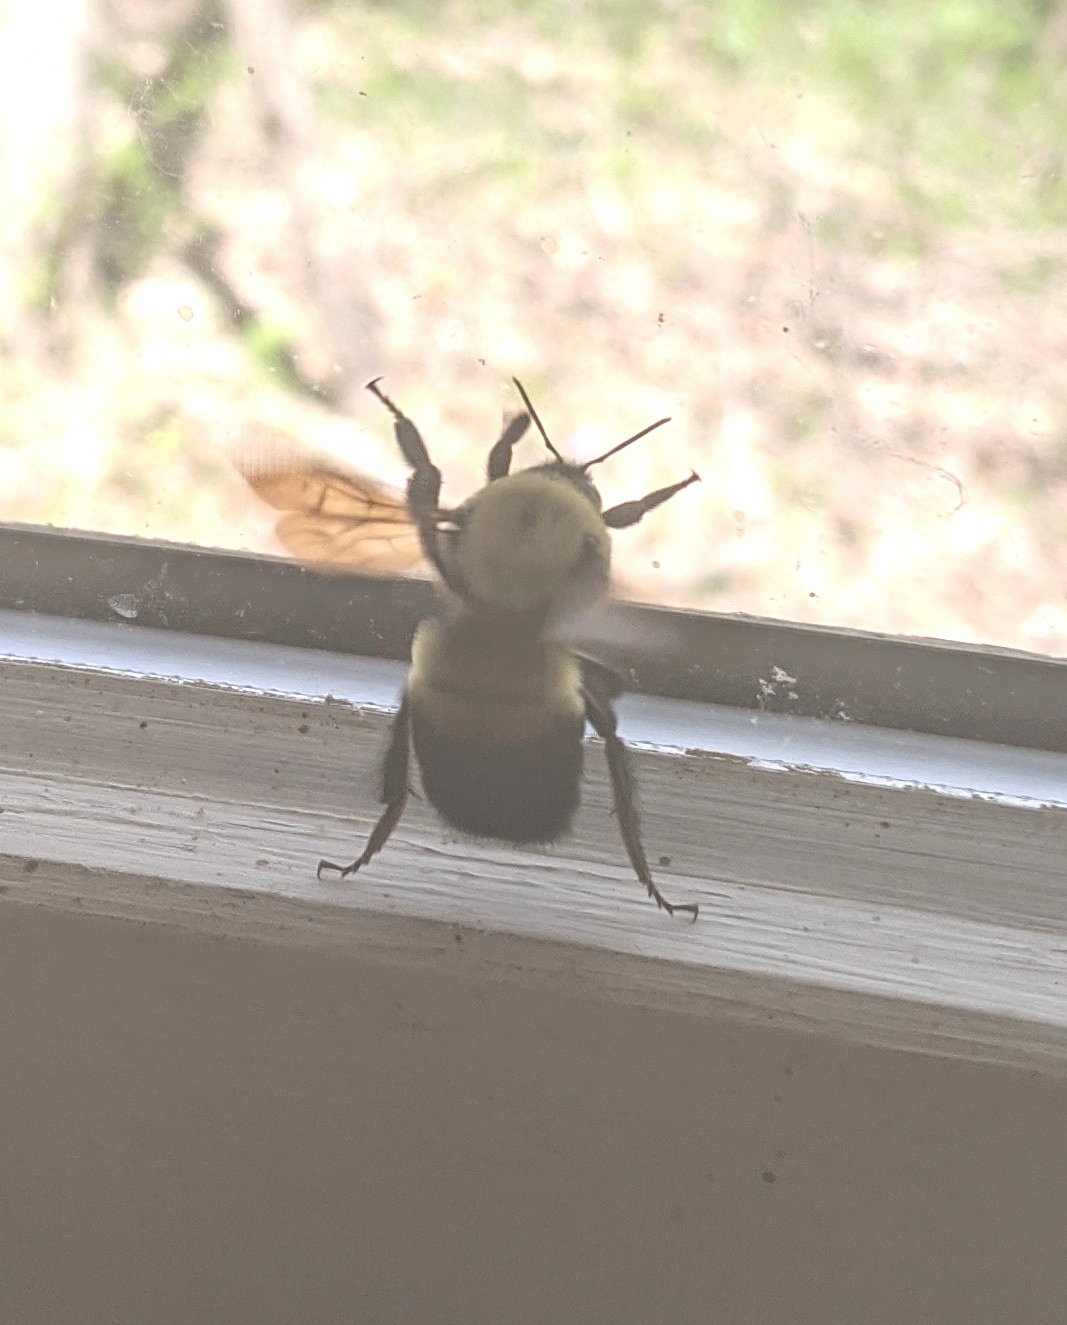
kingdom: Animalia
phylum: Arthropoda
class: Insecta
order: Hymenoptera
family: Apidae
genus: Bombus
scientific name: Bombus griseocollis
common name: Brown-belted bumble bee
